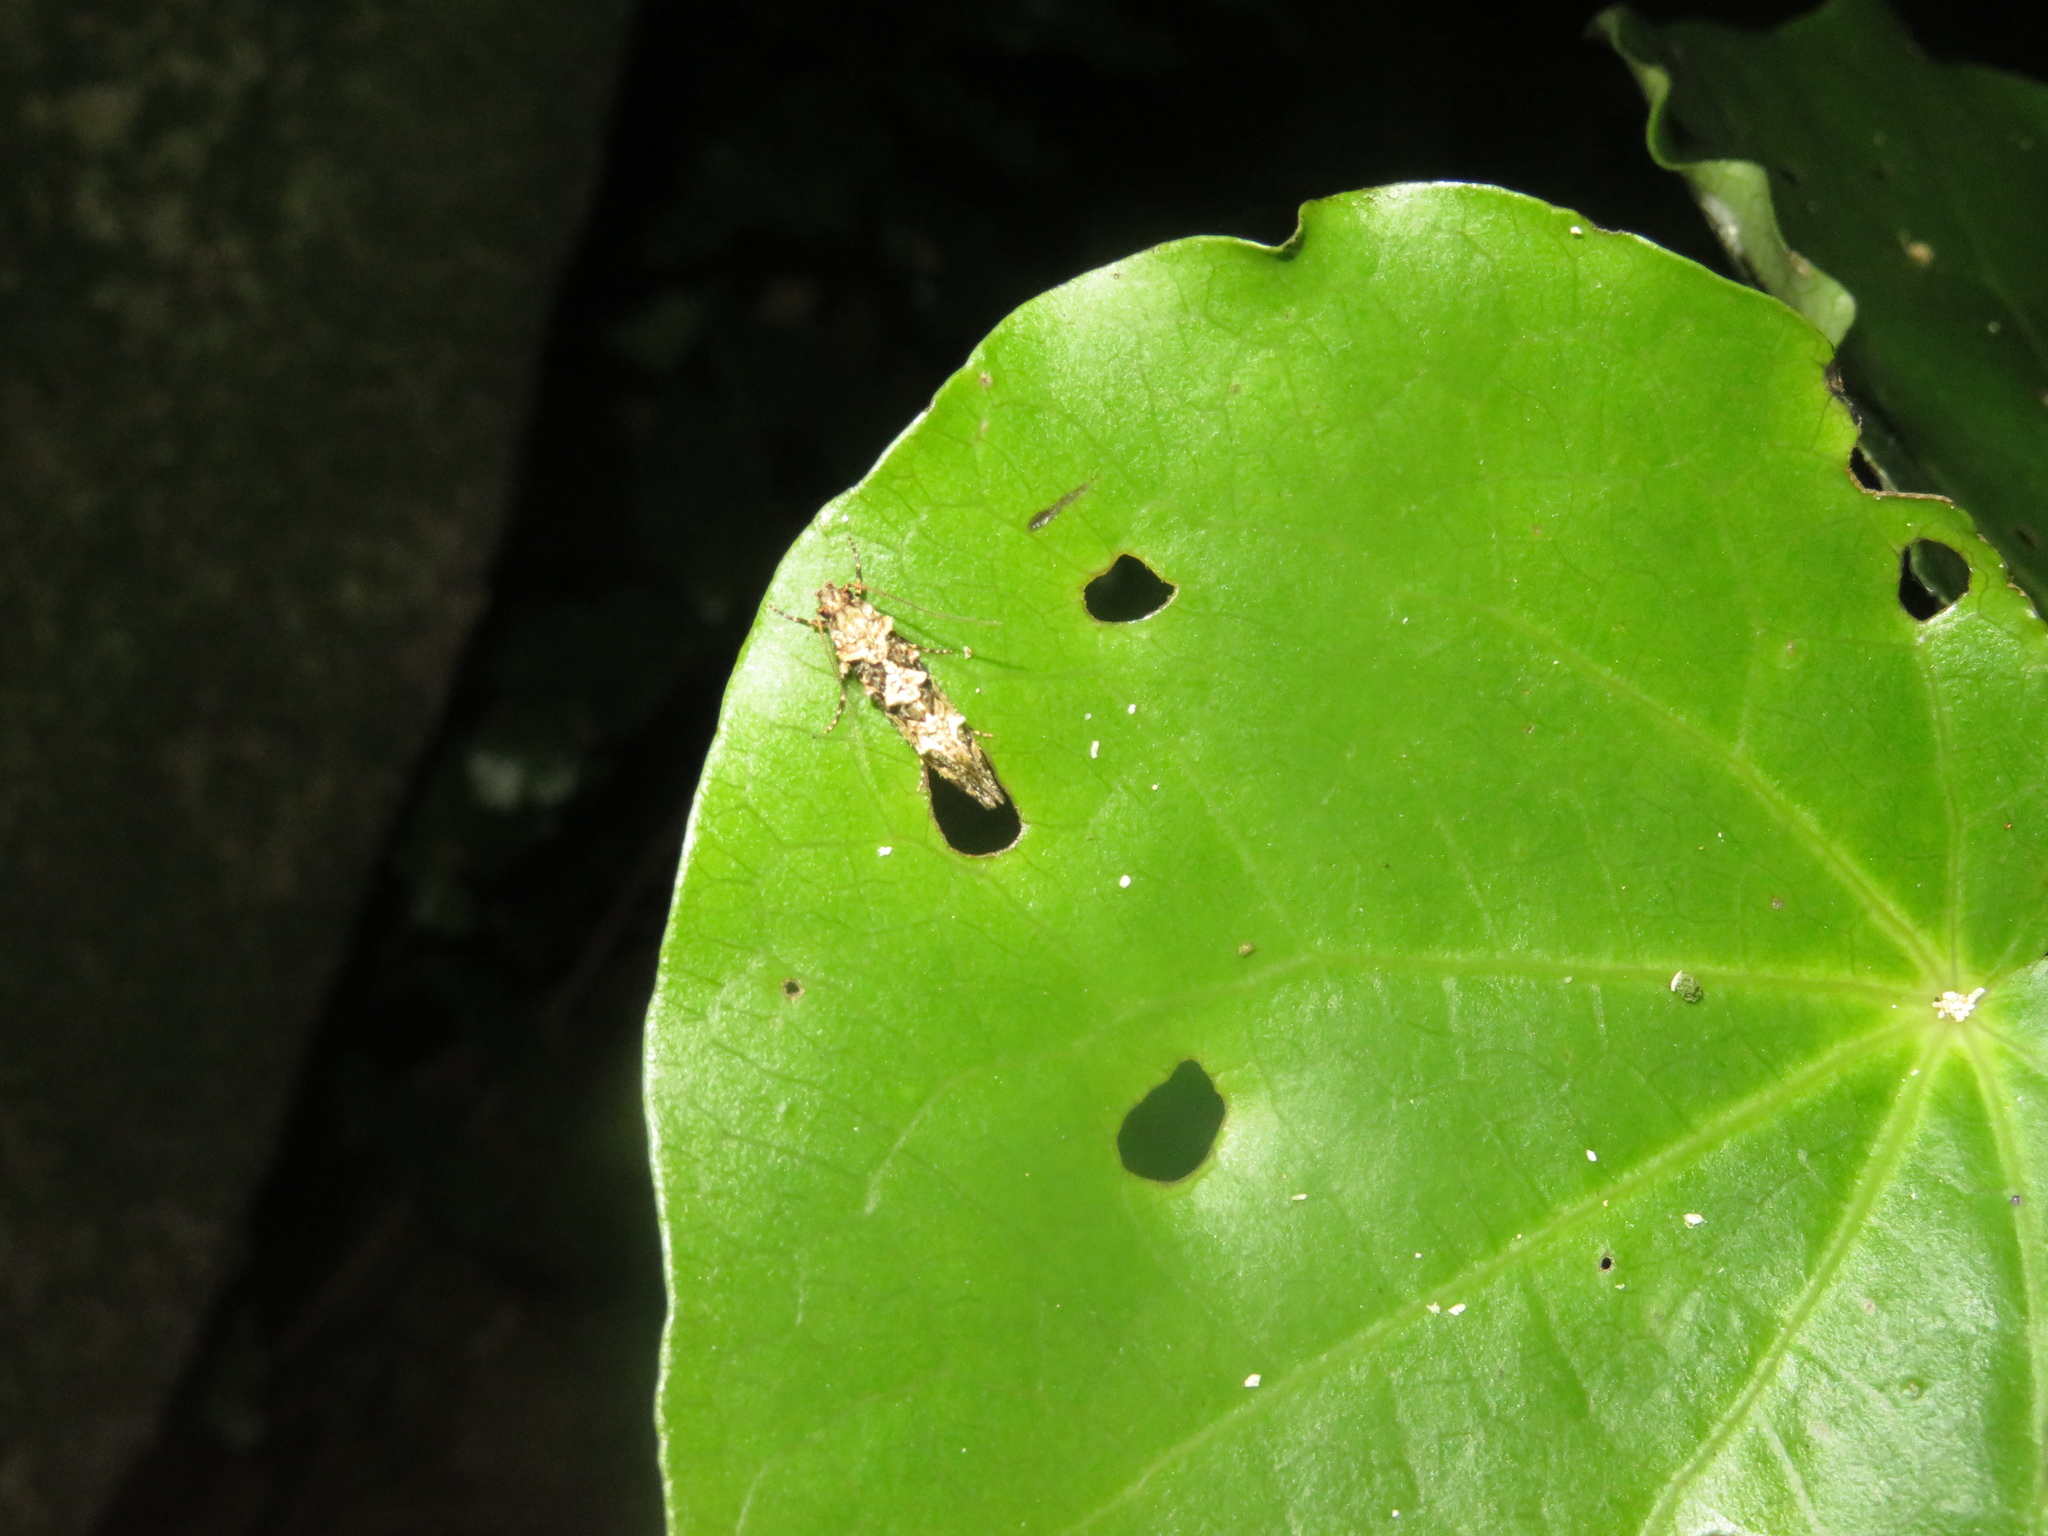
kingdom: Animalia
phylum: Arthropoda
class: Insecta
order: Lepidoptera
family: Tineidae
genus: Lysiphragma
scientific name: Lysiphragma howesii
